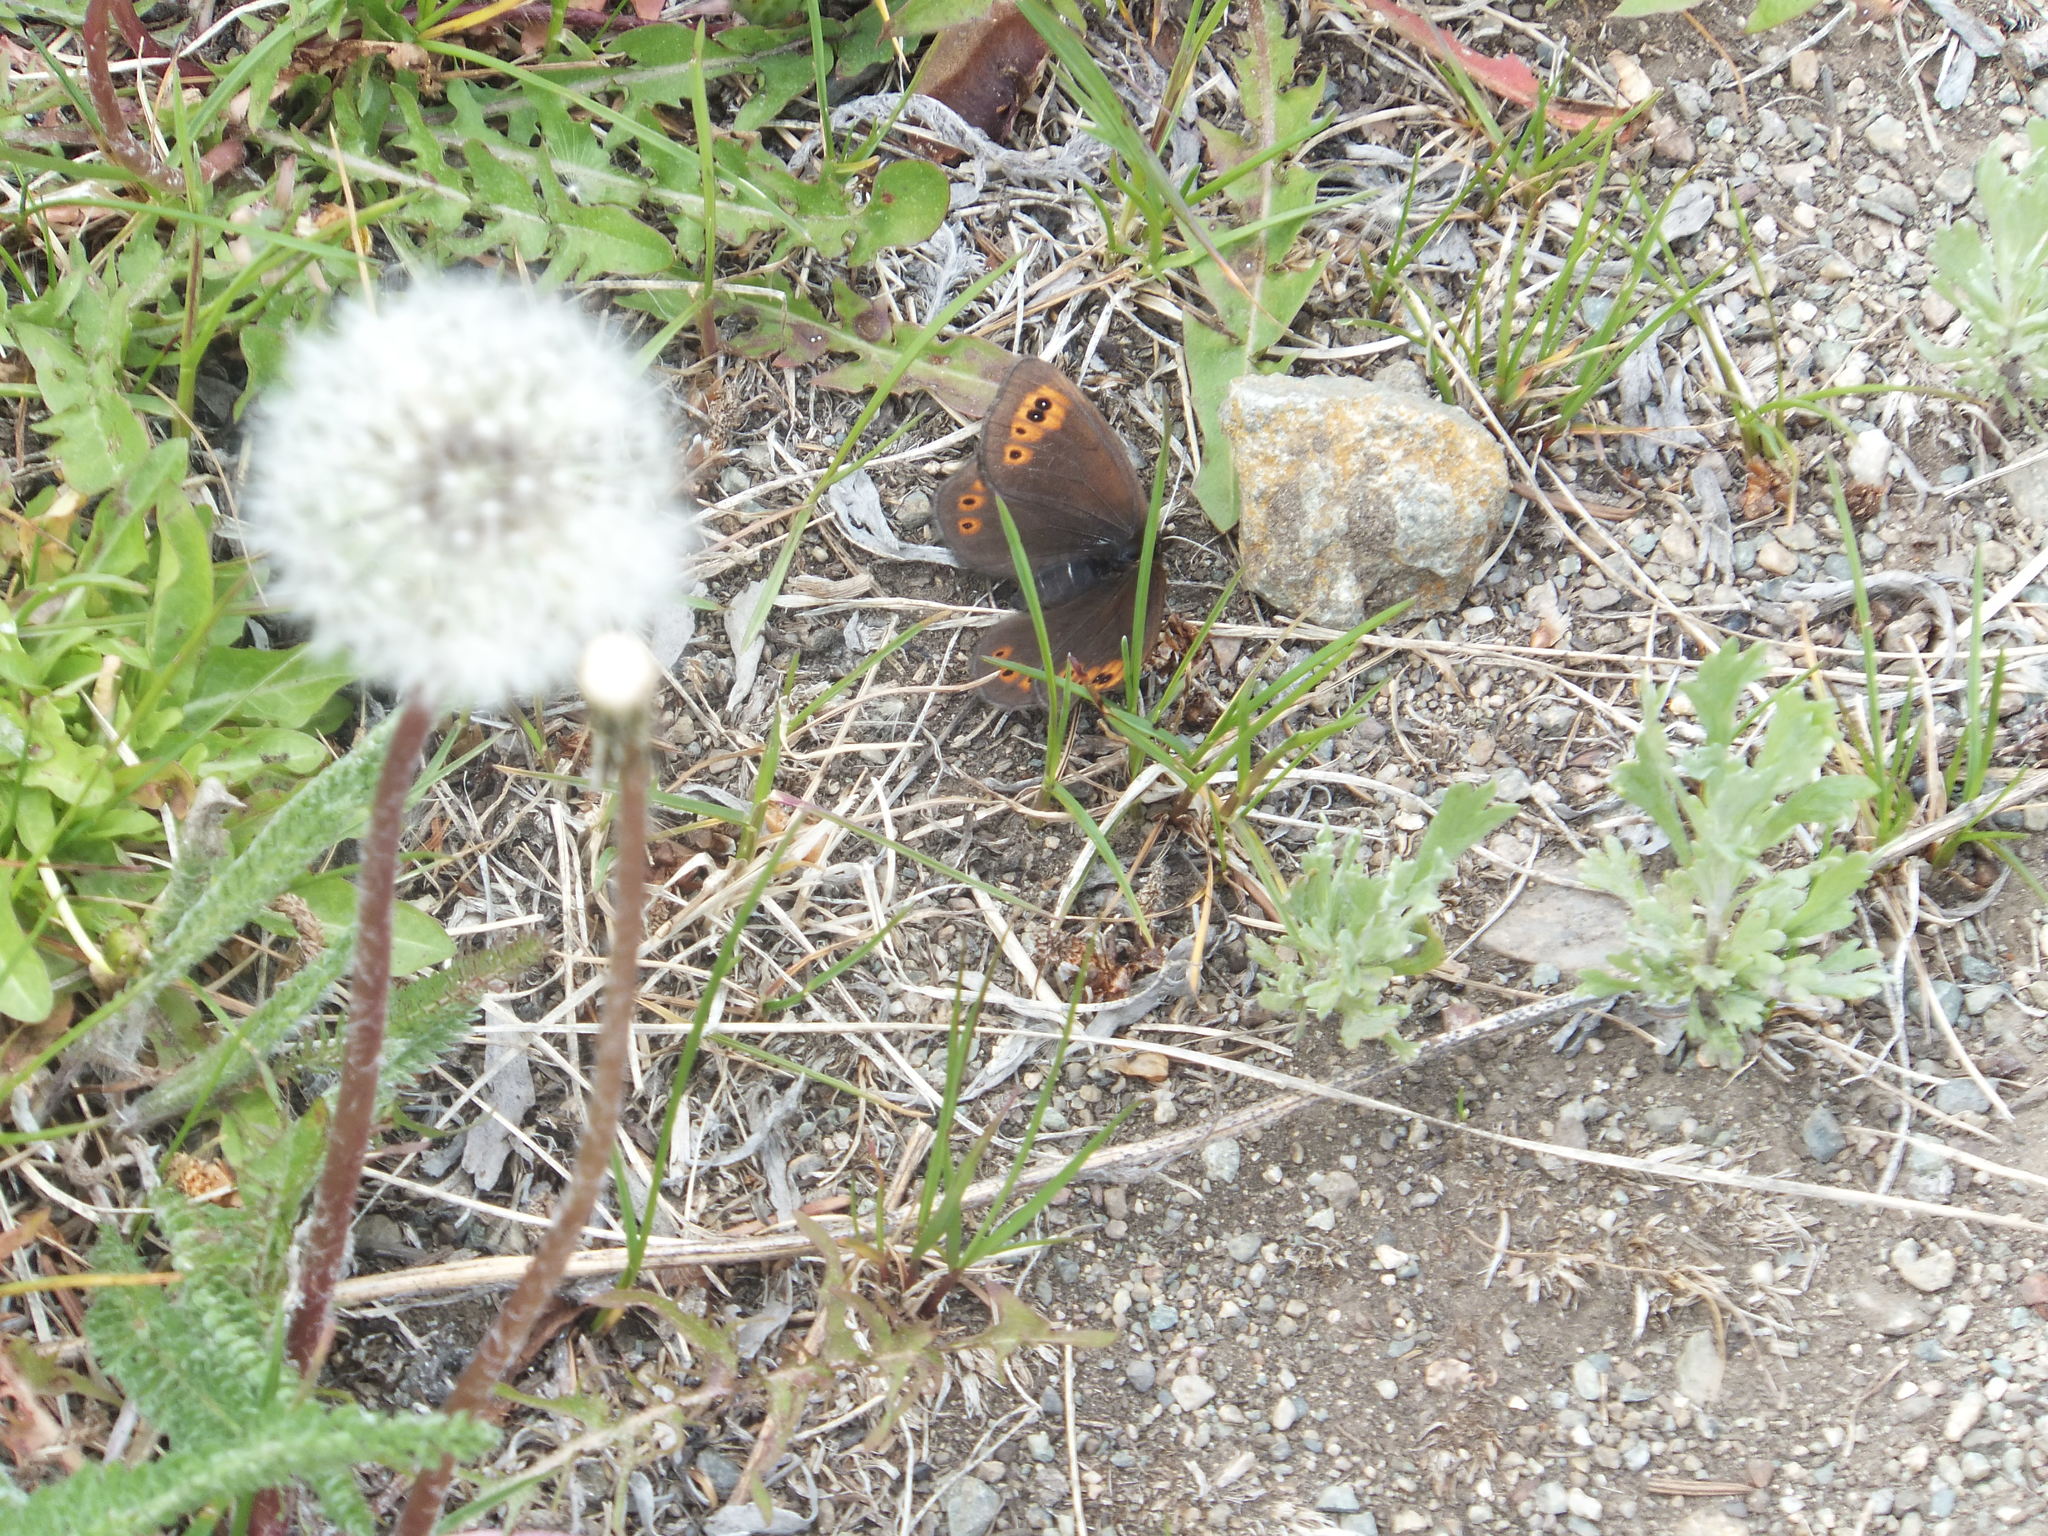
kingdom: Animalia
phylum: Arthropoda
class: Insecta
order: Lepidoptera
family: Nymphalidae
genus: Erebia
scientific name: Erebia epipsodea
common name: Common alpine
